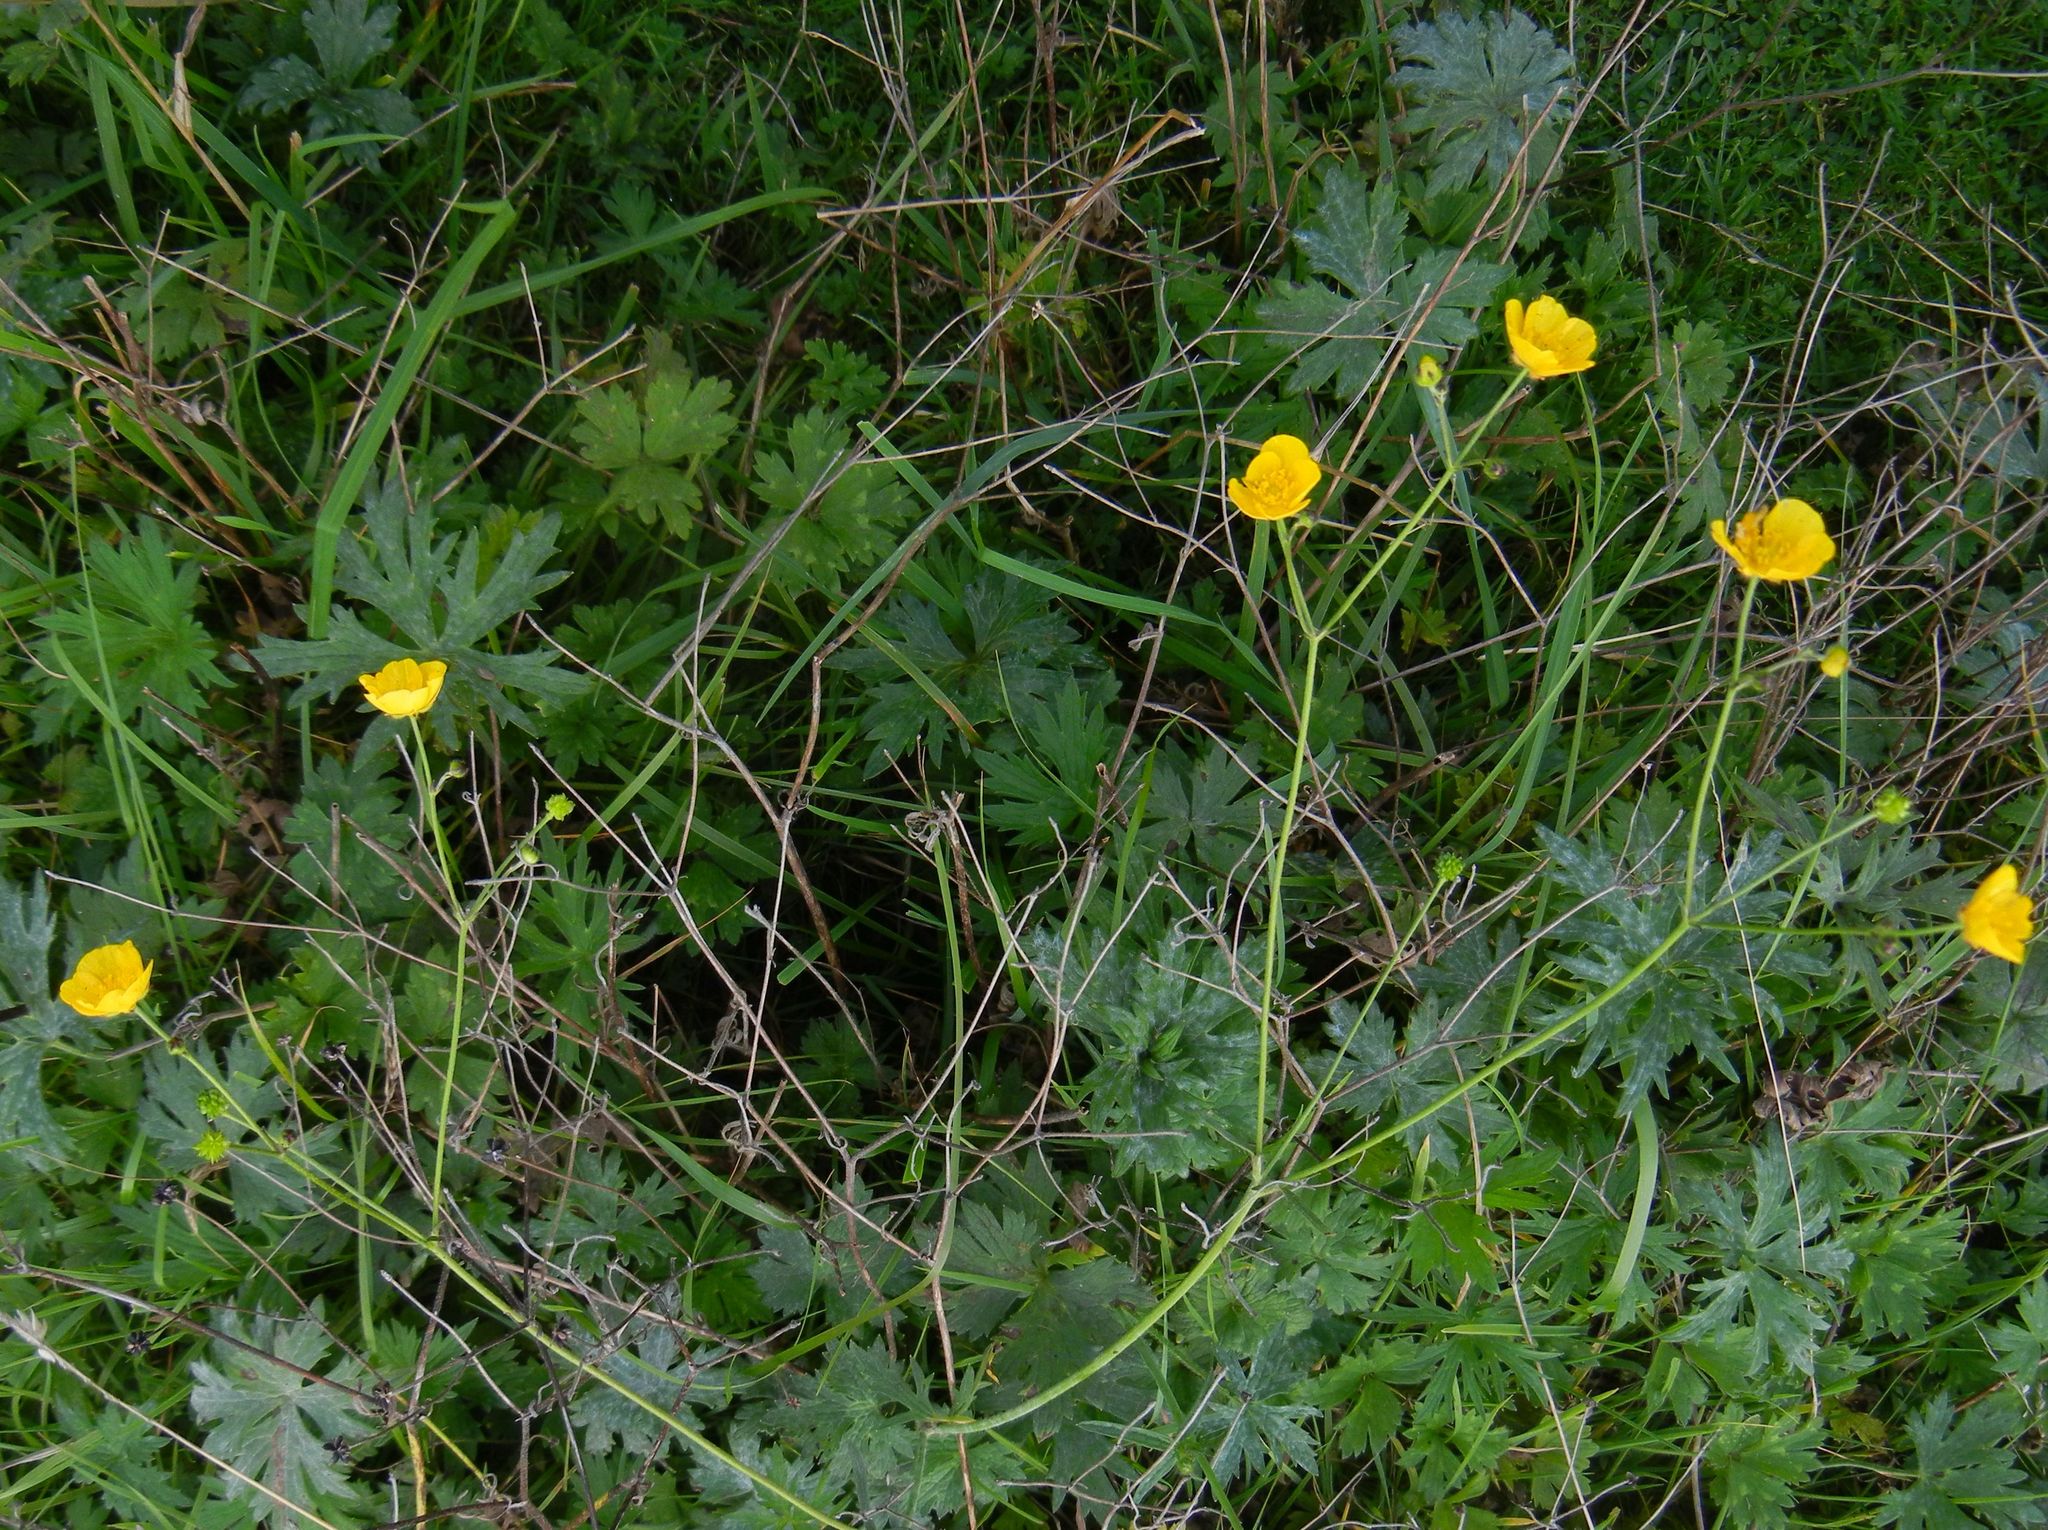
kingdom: Plantae
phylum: Tracheophyta
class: Magnoliopsida
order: Ranunculales
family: Ranunculaceae
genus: Ranunculus
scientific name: Ranunculus acris
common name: Meadow buttercup
